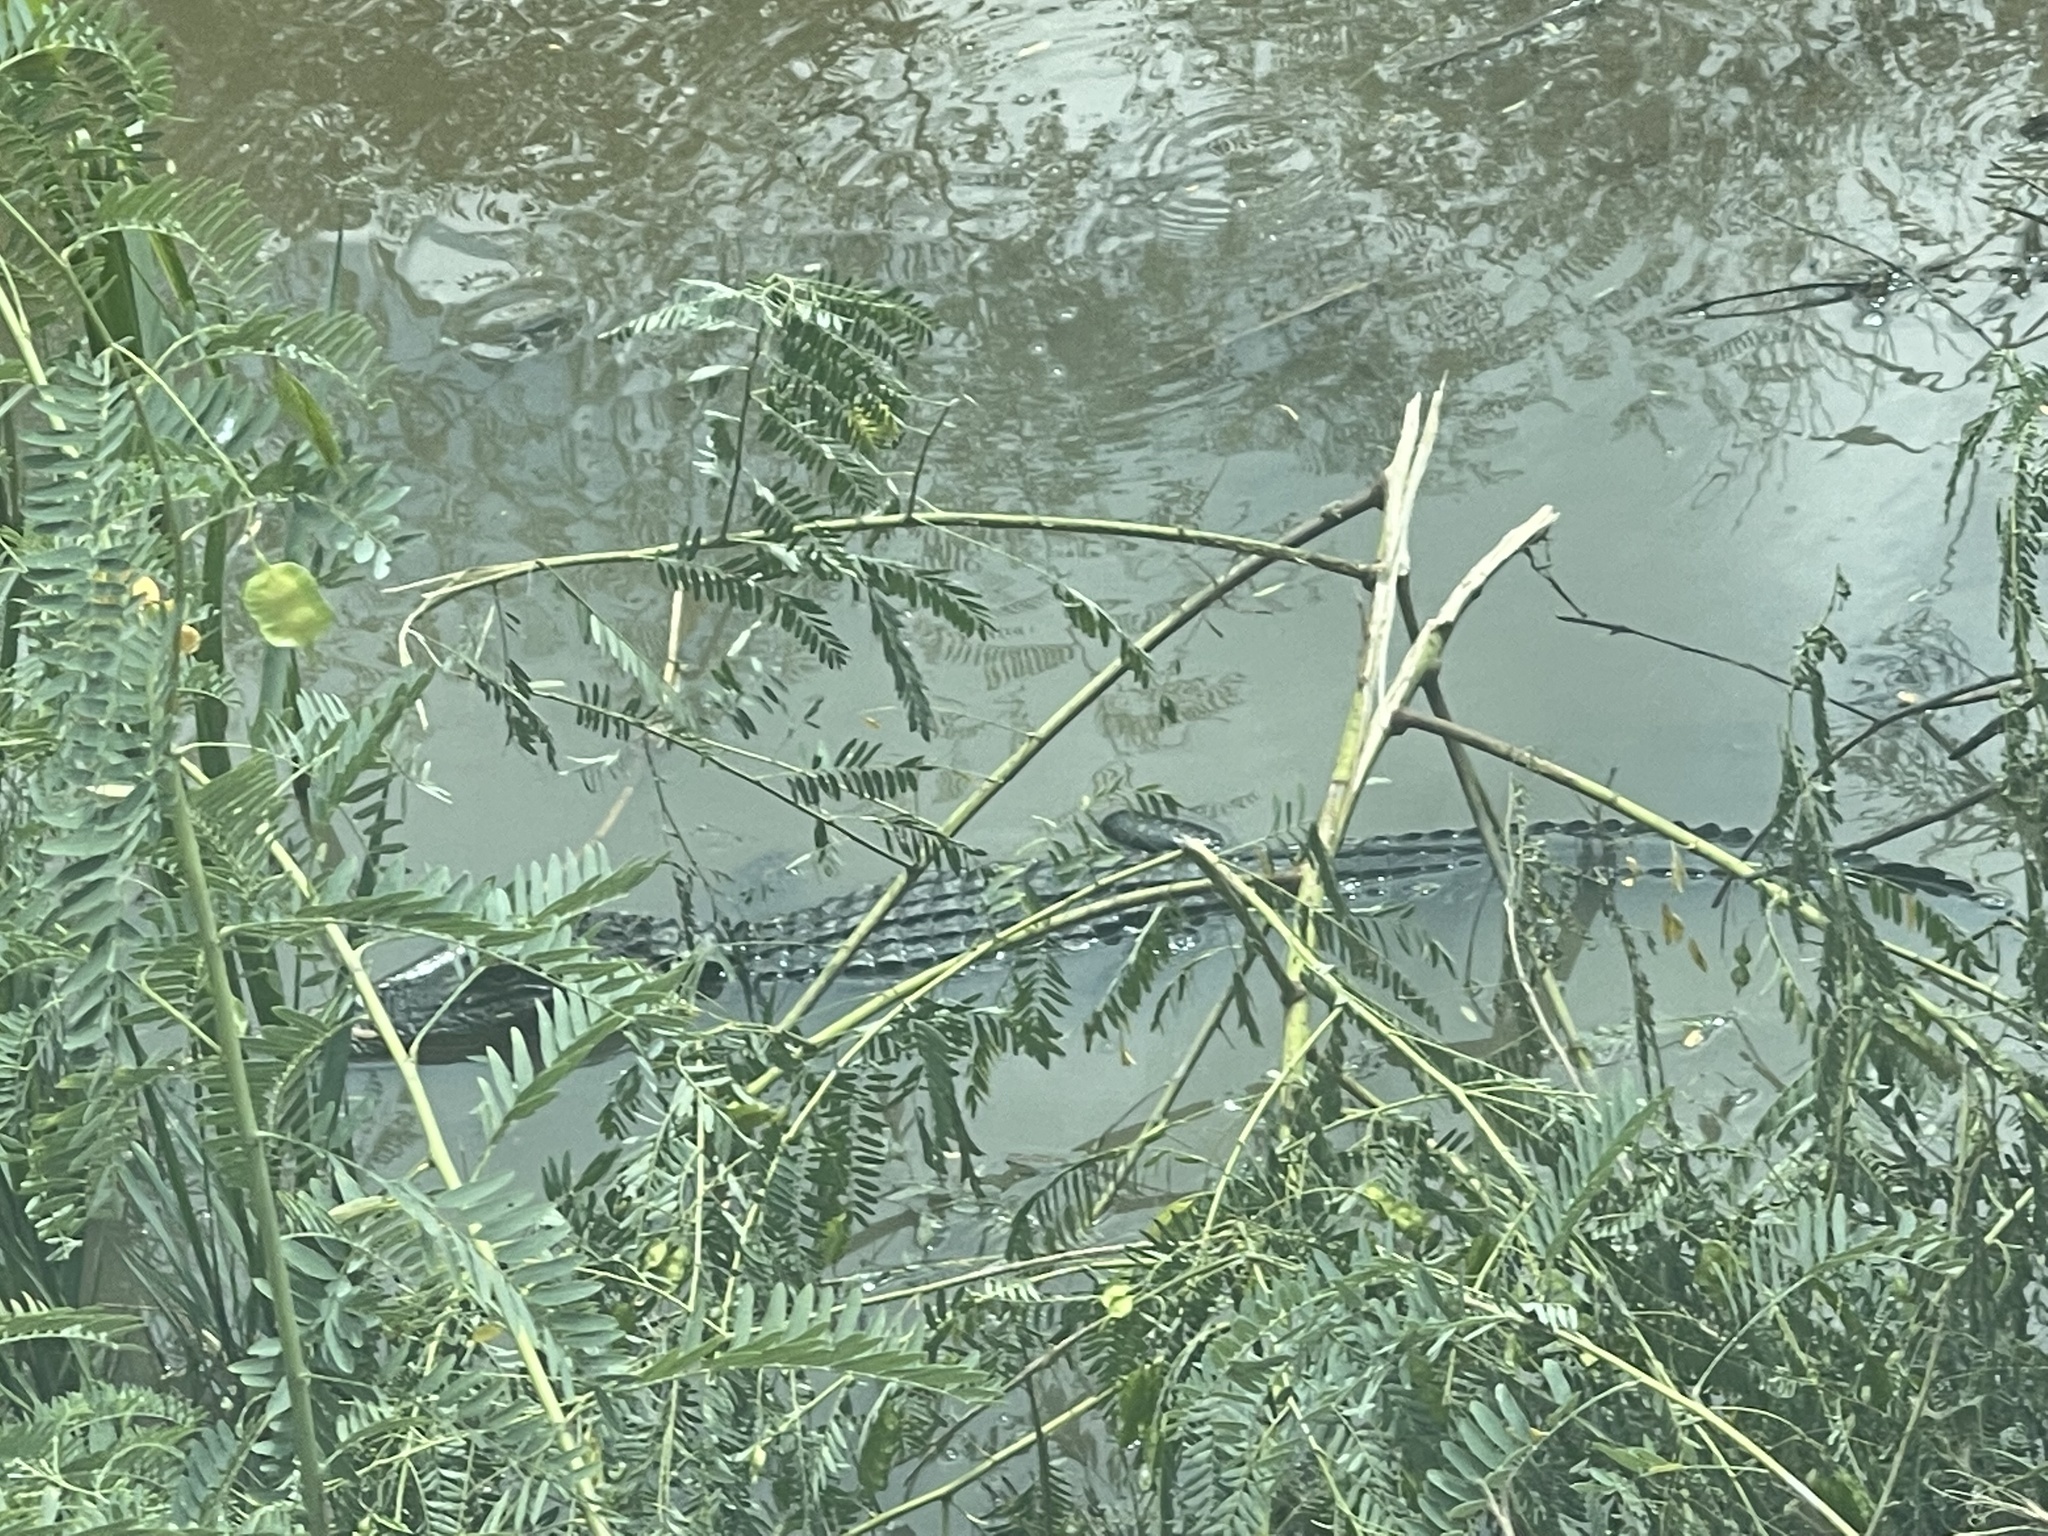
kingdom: Animalia
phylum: Chordata
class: Crocodylia
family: Alligatoridae
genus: Alligator
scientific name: Alligator mississippiensis
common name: American alligator
